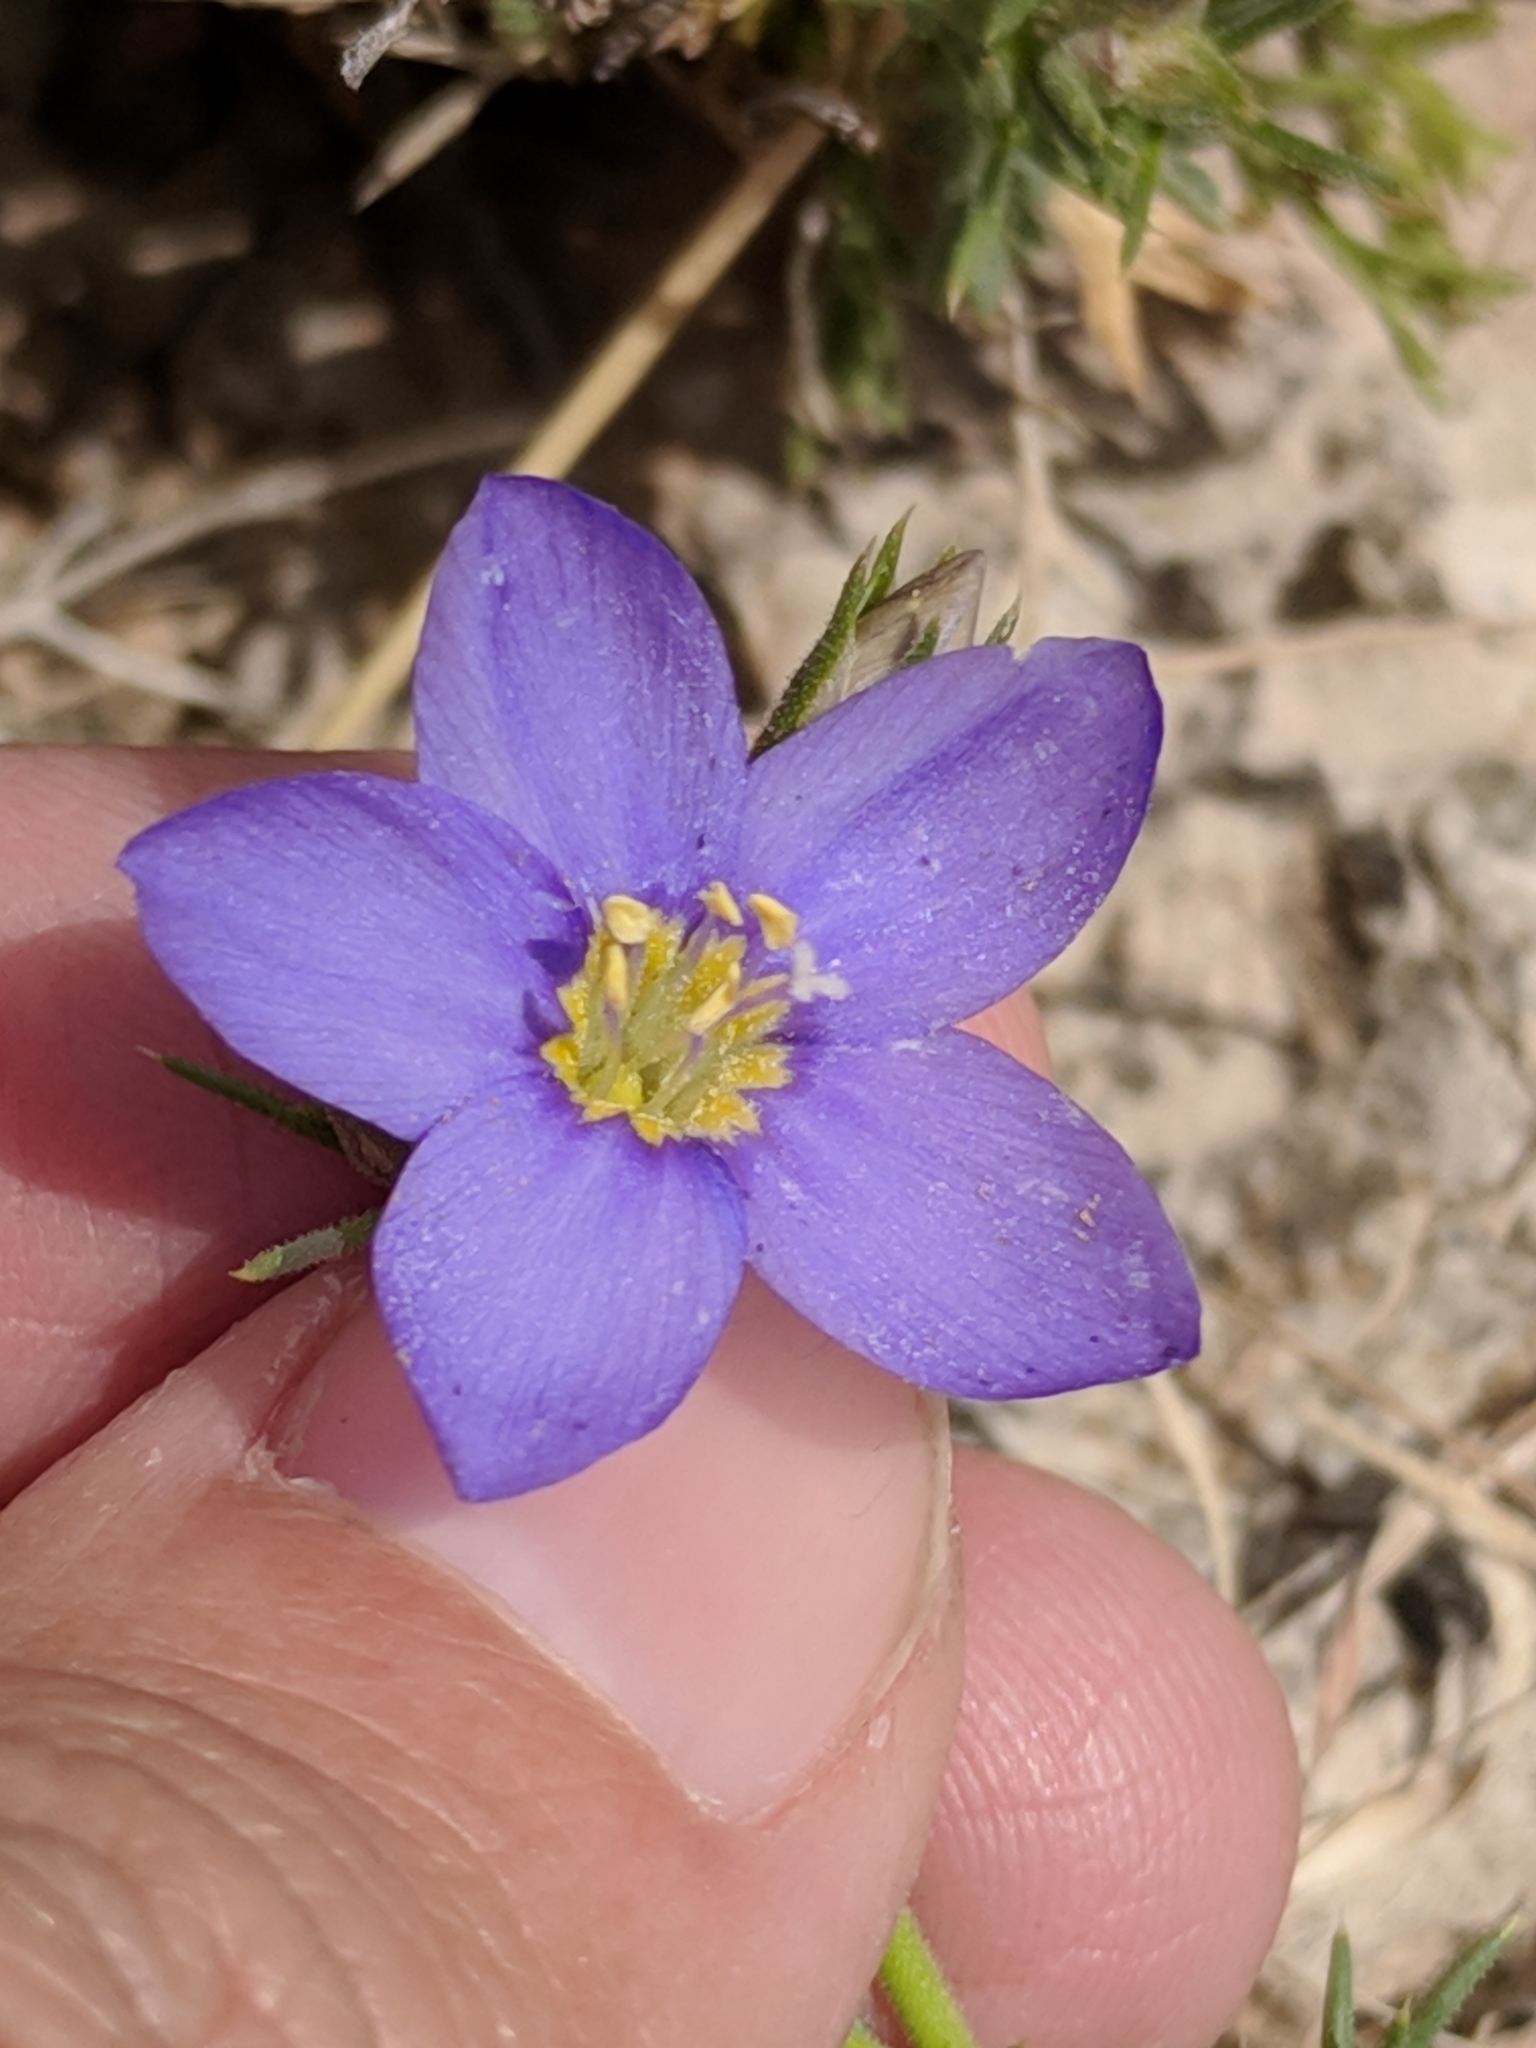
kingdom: Plantae
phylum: Tracheophyta
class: Magnoliopsida
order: Ericales
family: Polemoniaceae
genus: Giliastrum
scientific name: Giliastrum acerosum
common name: Bluebowls
